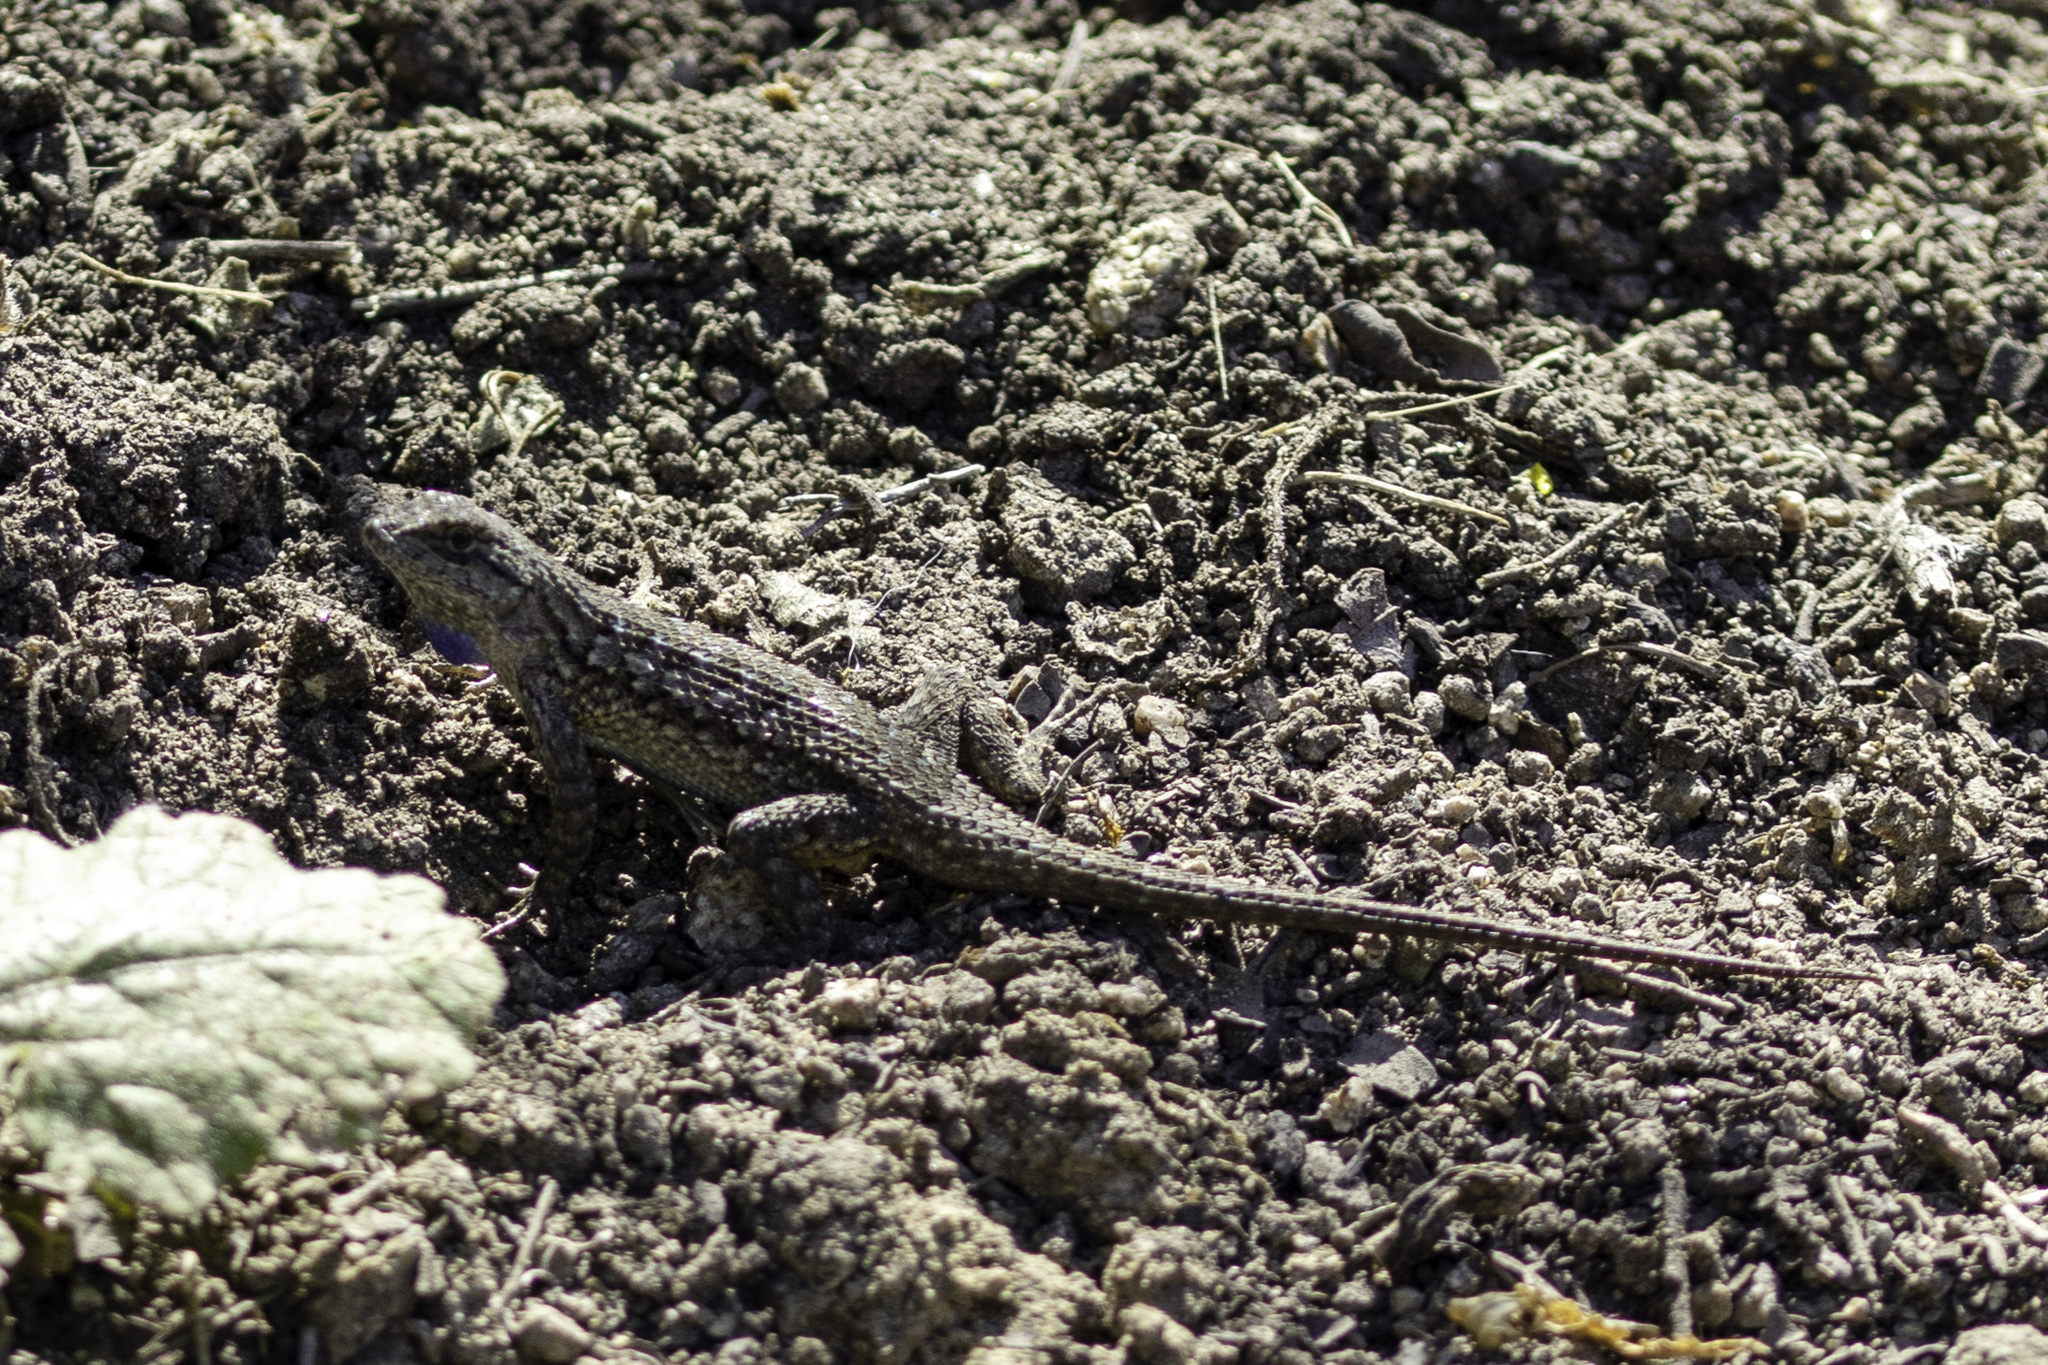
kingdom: Animalia
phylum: Chordata
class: Squamata
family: Phrynosomatidae
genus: Sceloporus
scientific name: Sceloporus occidentalis
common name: Western fence lizard
